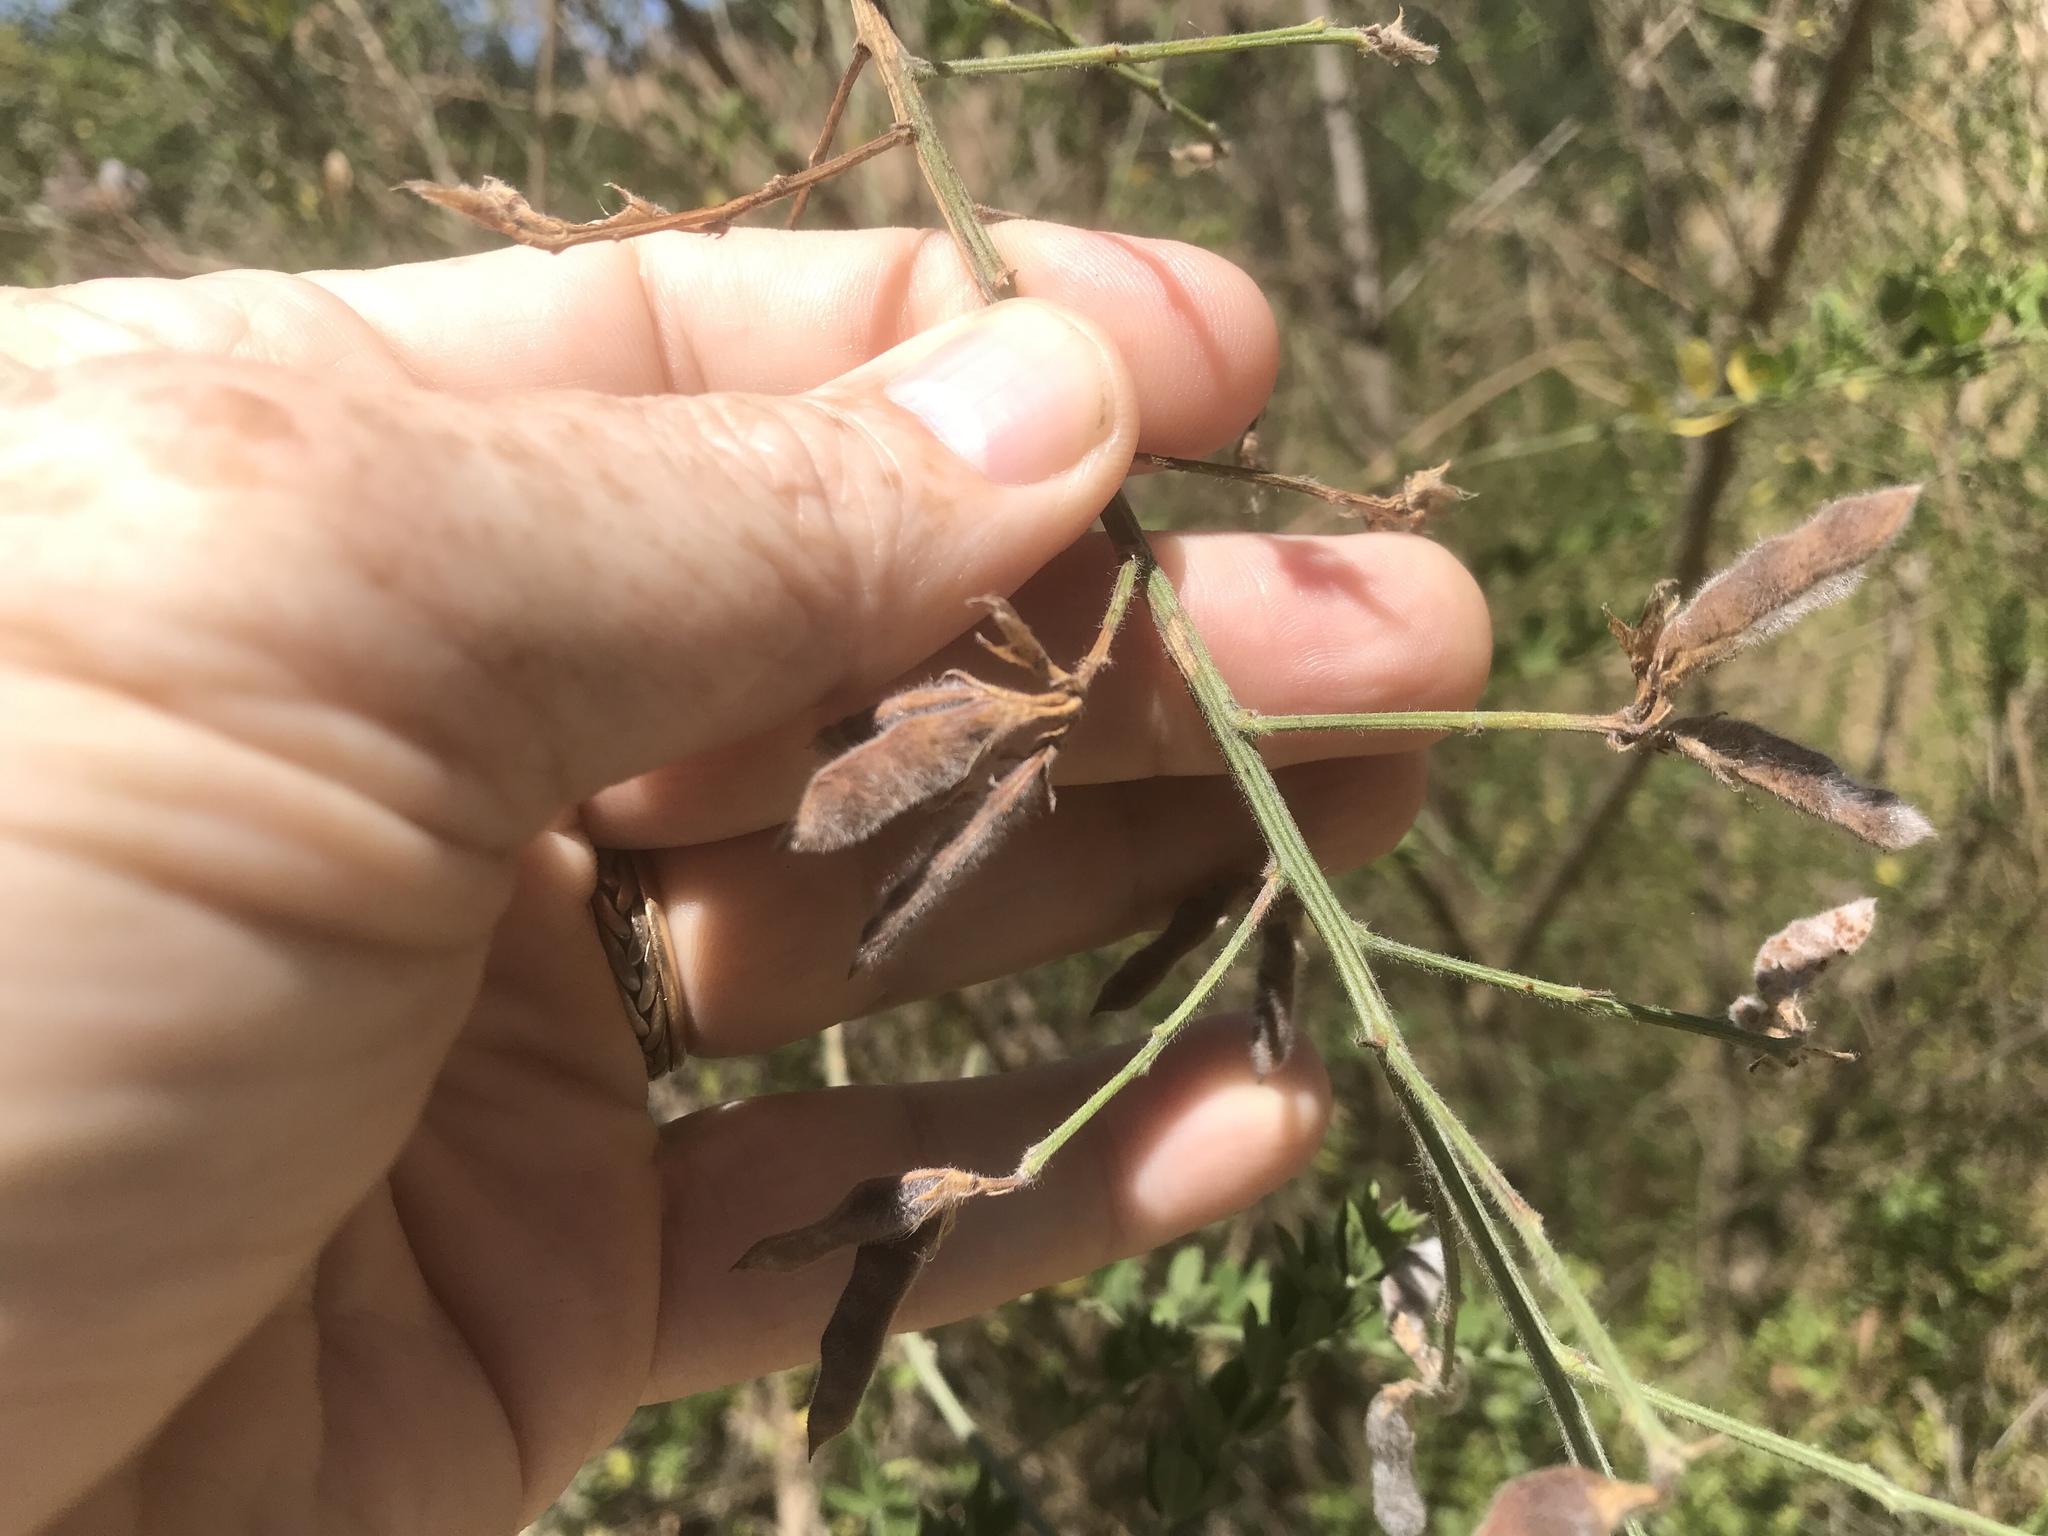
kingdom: Plantae
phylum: Tracheophyta
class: Magnoliopsida
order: Fabales
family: Fabaceae
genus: Genista
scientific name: Genista monspessulana
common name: Montpellier broom
